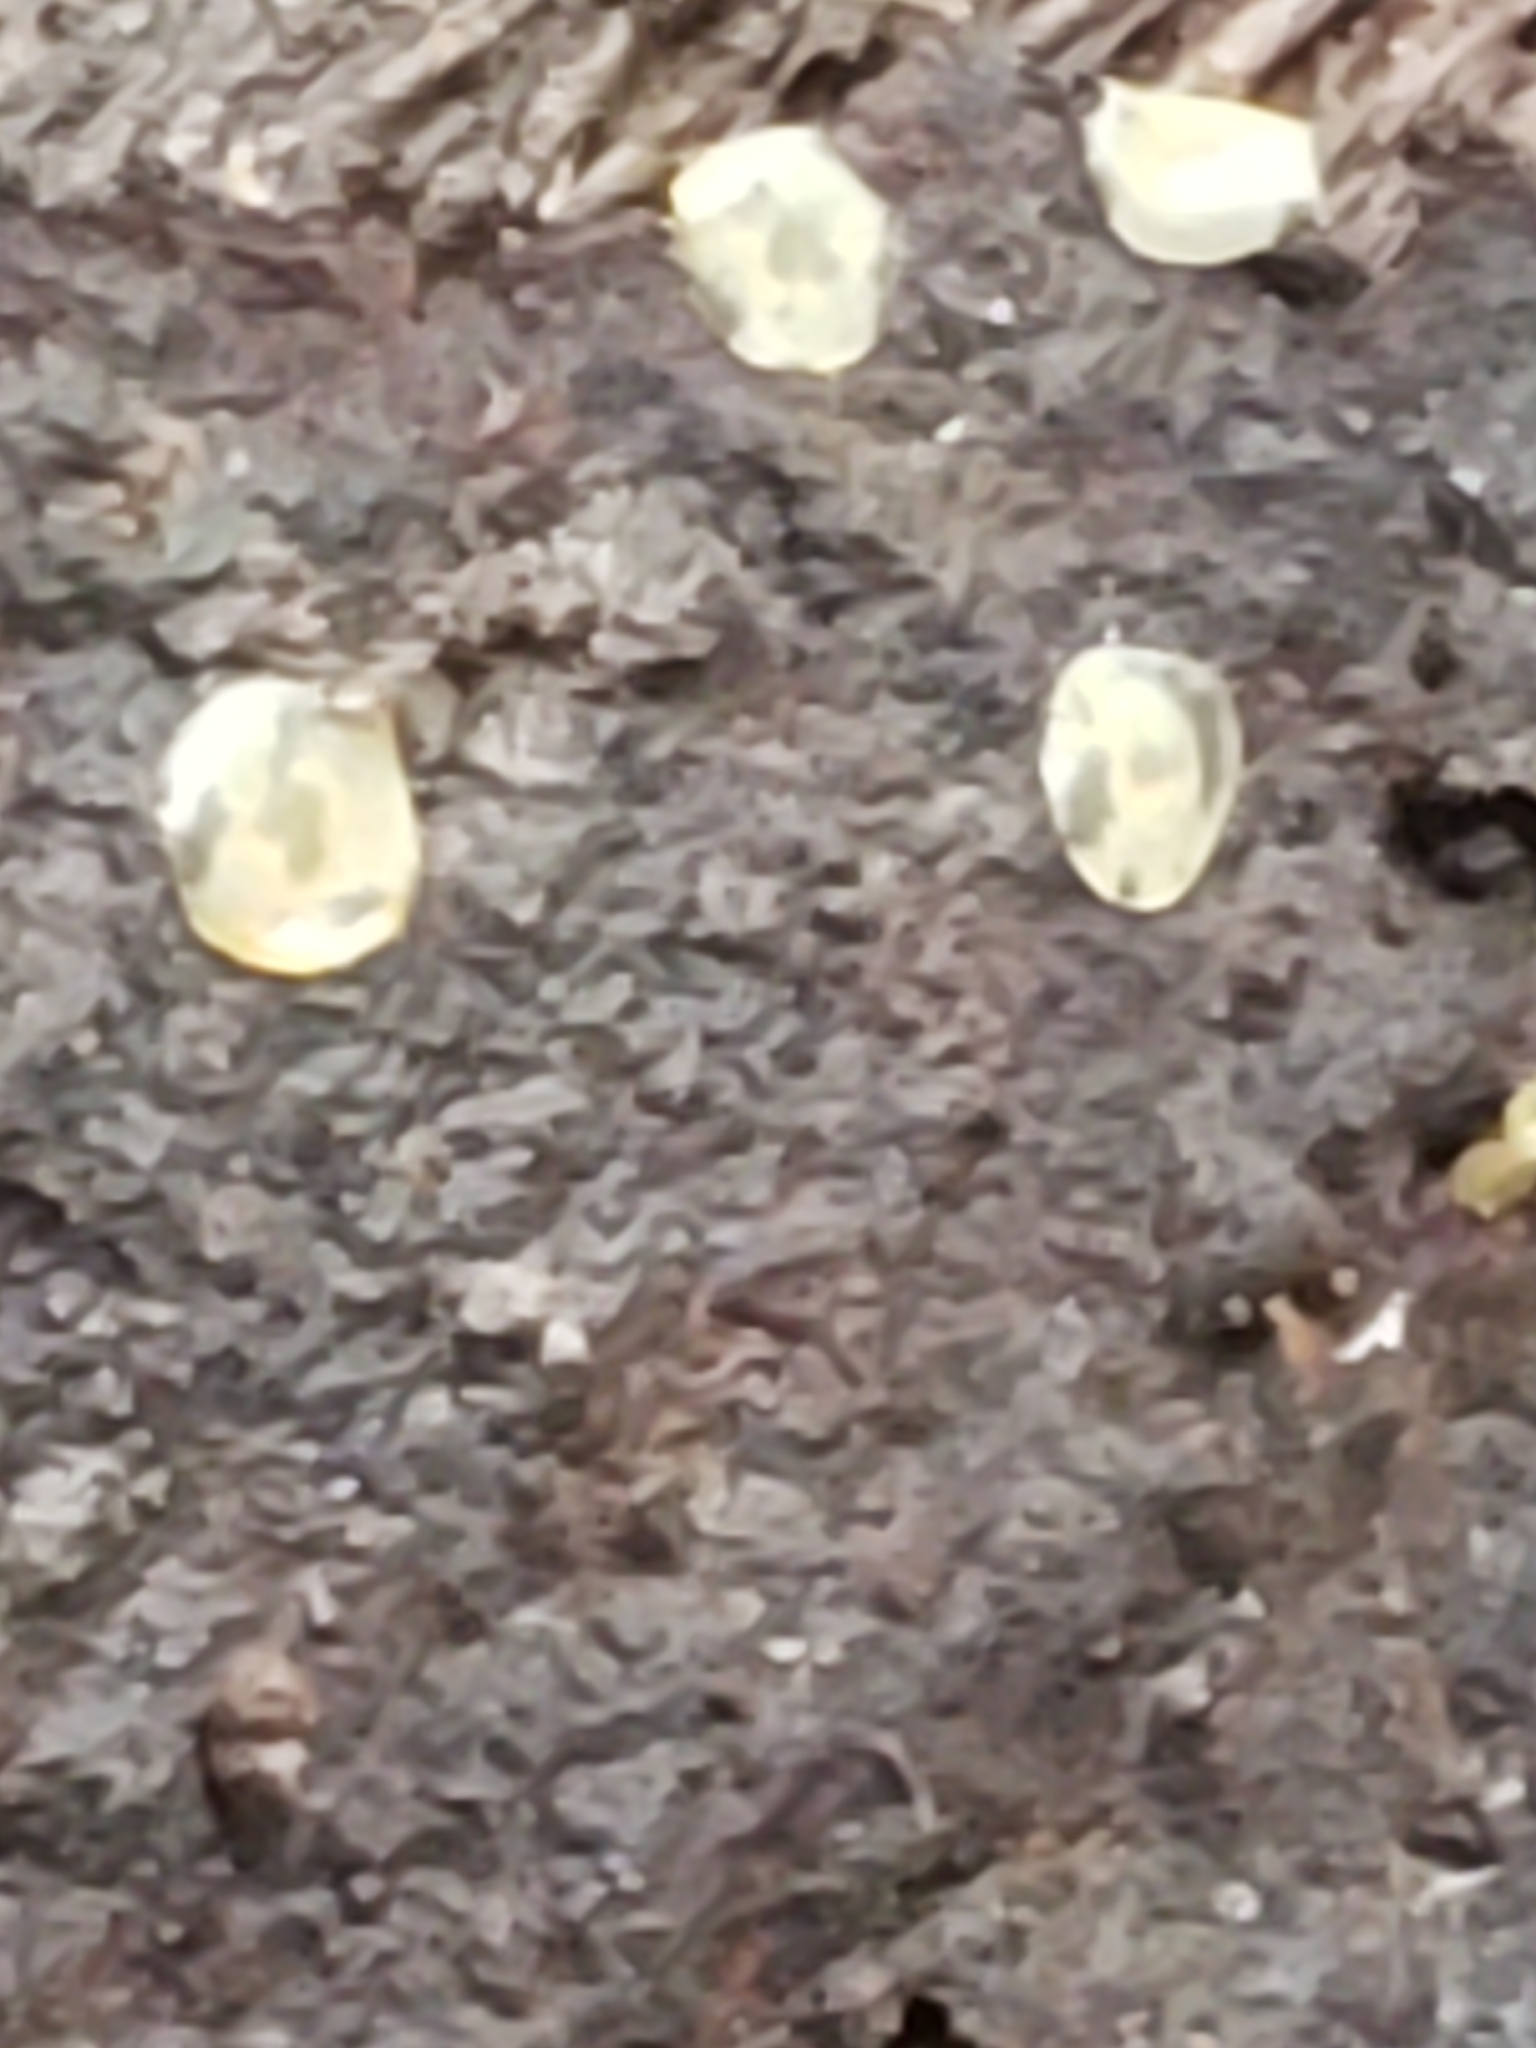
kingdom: Fungi
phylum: Ascomycota
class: Orbiliomycetes
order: Orbiliales
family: Orbiliaceae
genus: Orbilia
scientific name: Orbilia
